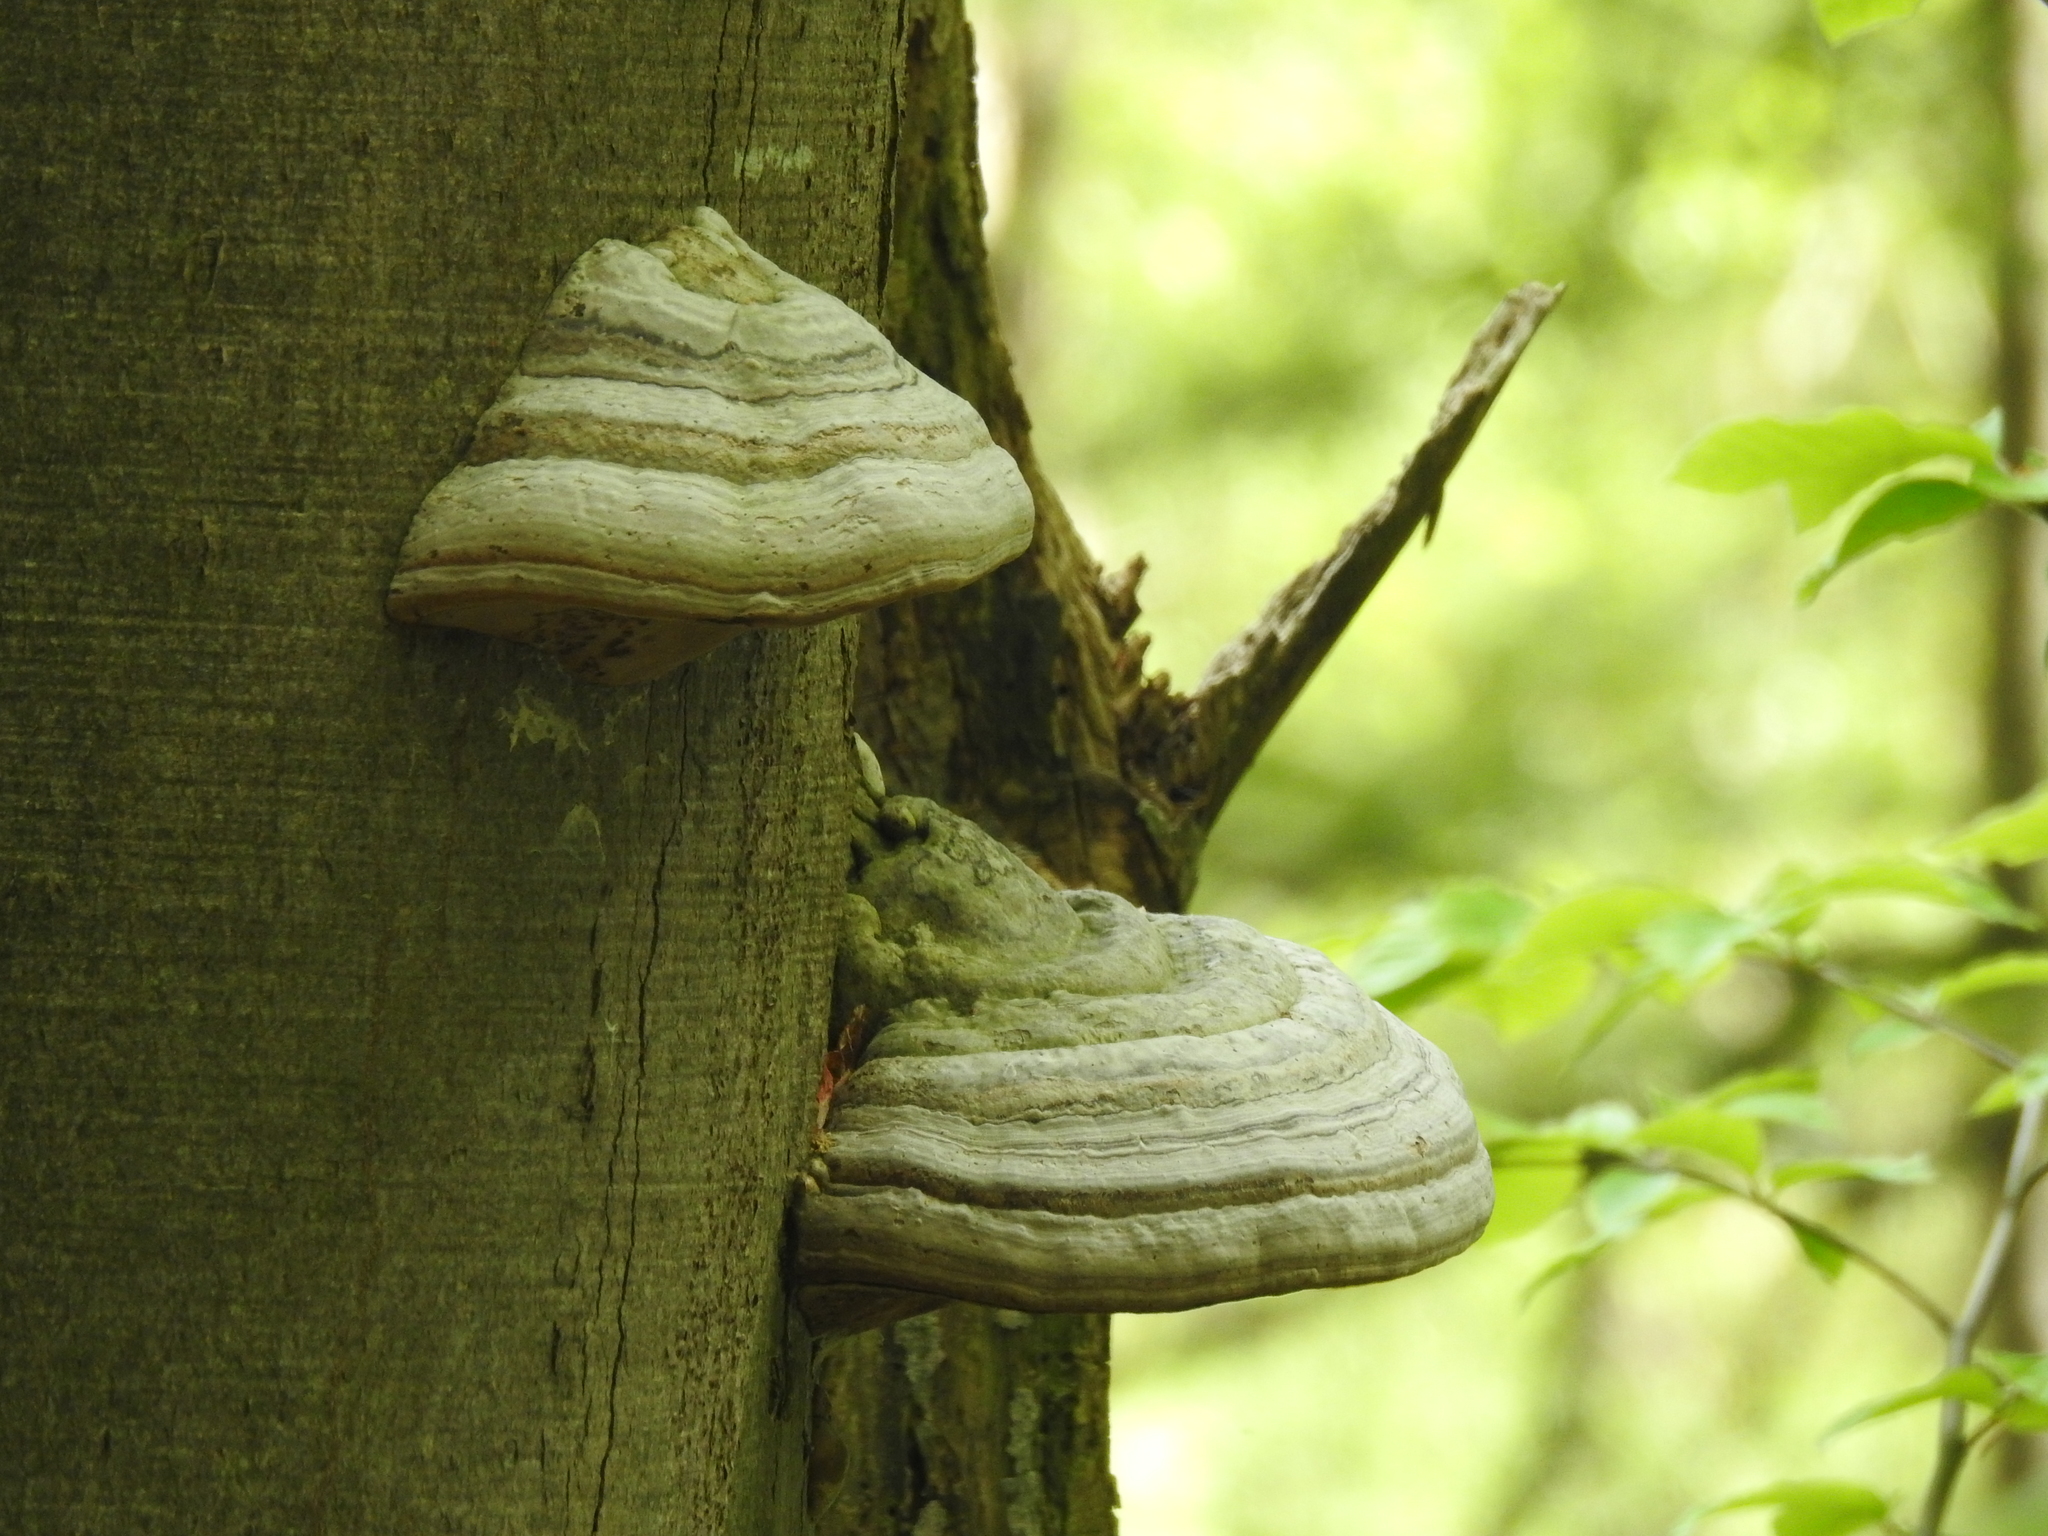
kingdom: Fungi
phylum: Basidiomycota
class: Agaricomycetes
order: Polyporales
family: Polyporaceae
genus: Fomes
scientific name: Fomes fomentarius
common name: Hoof fungus
